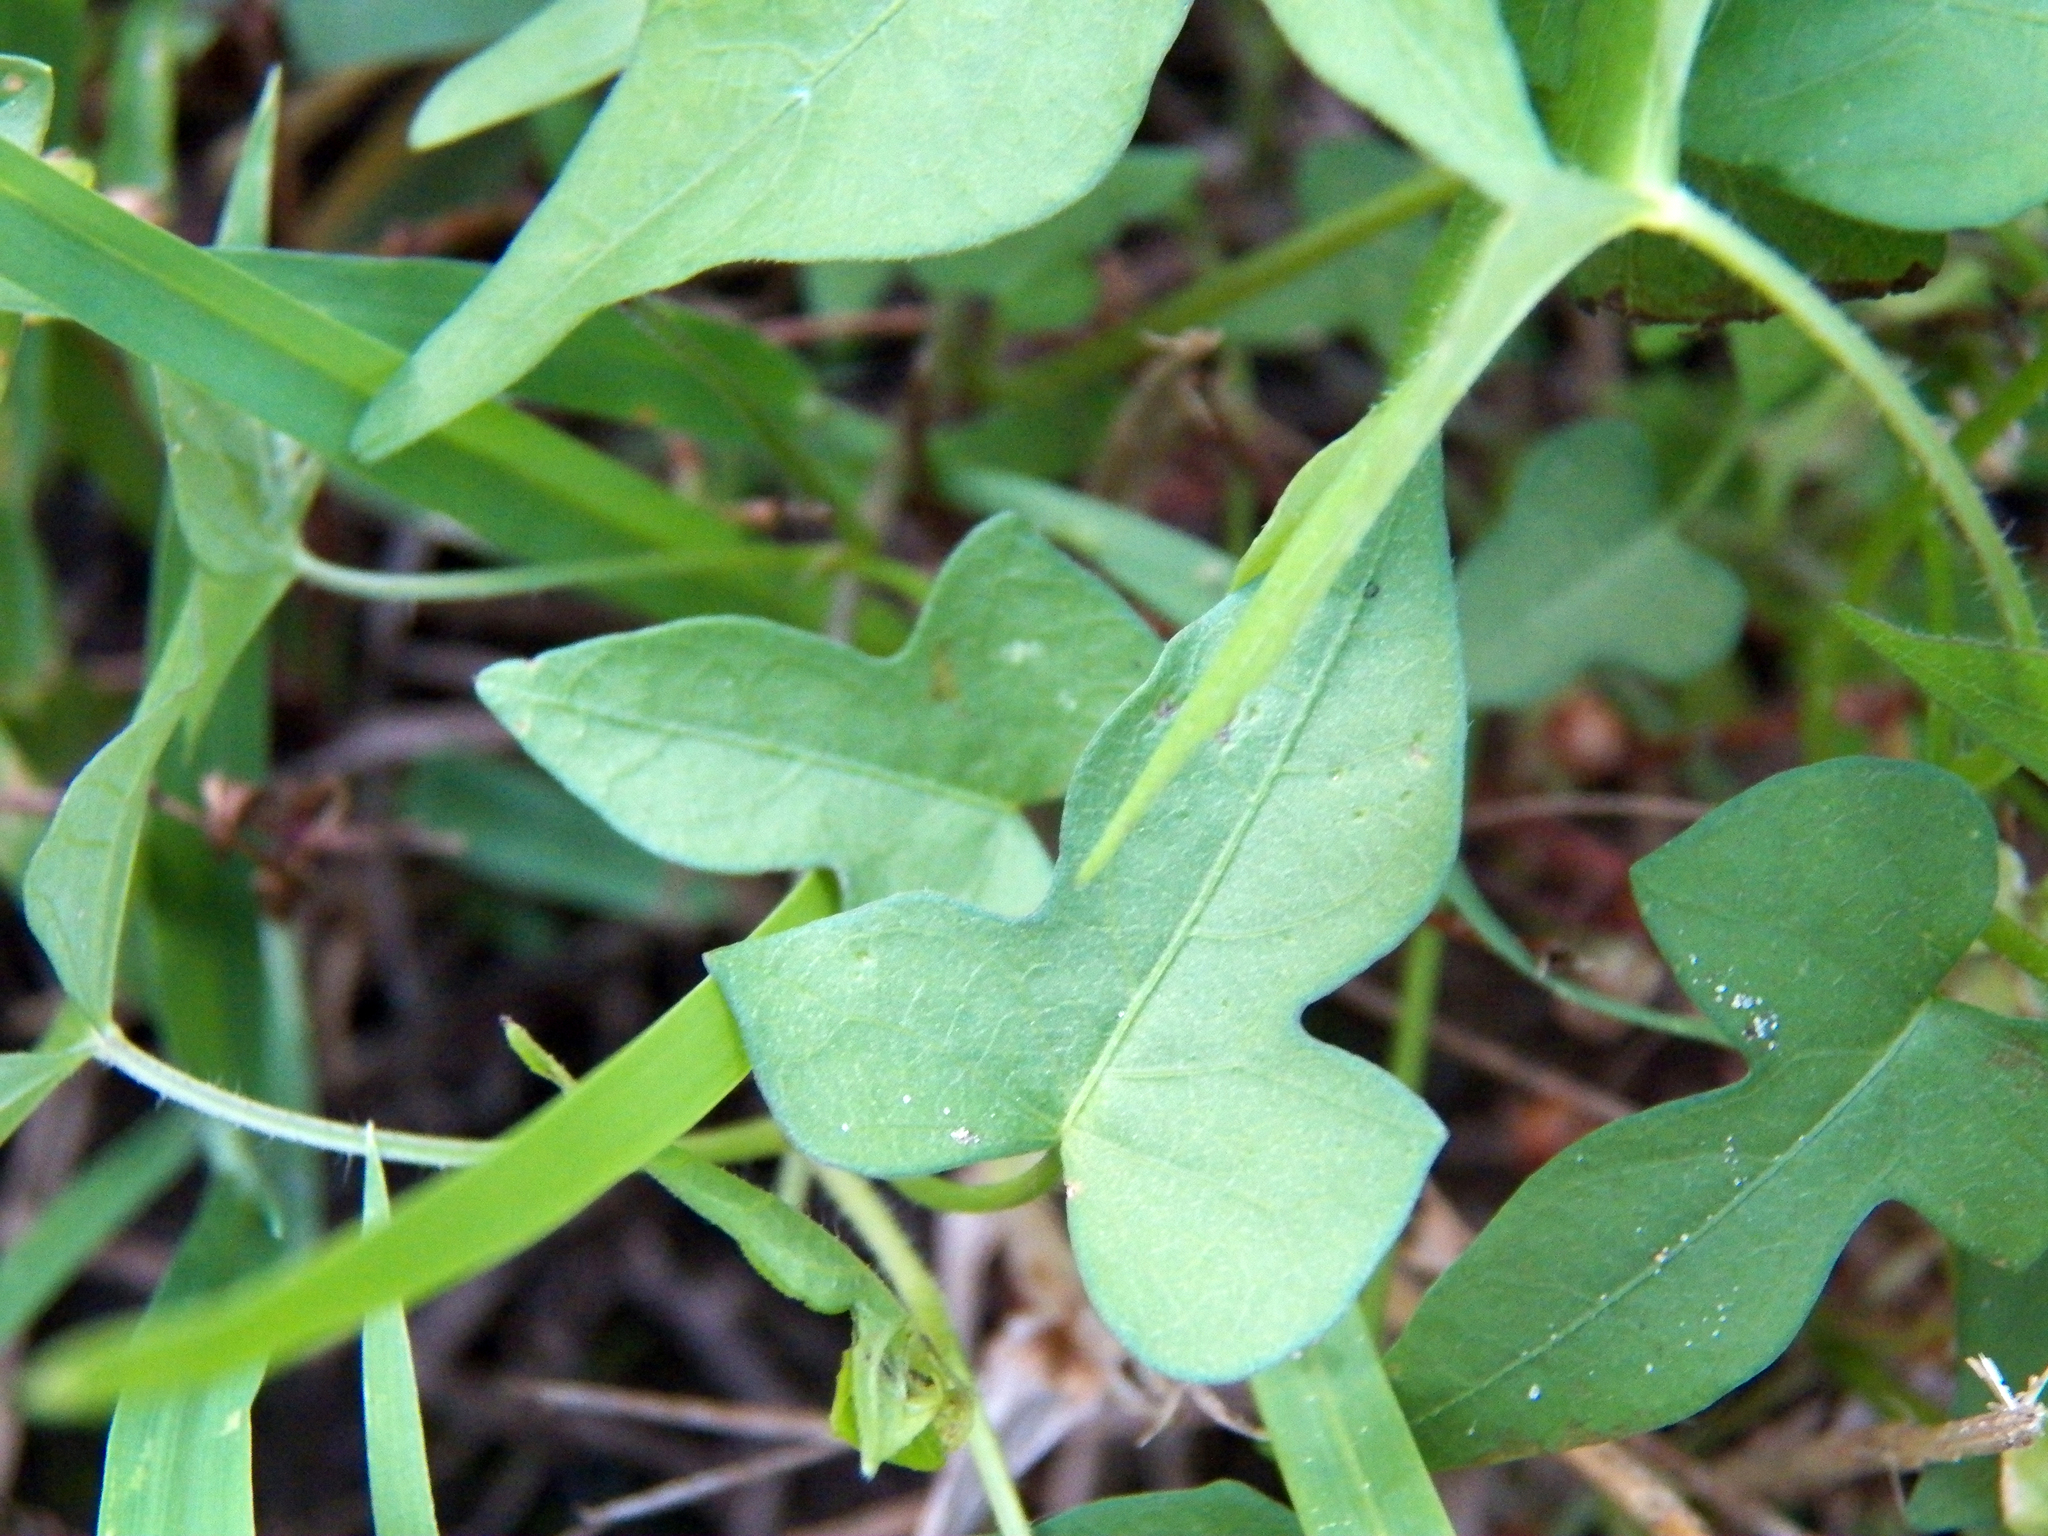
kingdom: Plantae
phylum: Tracheophyta
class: Magnoliopsida
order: Solanales
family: Convolvulaceae
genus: Ipomoea
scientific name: Ipomoea cordatotriloba
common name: Cotton morning glory
